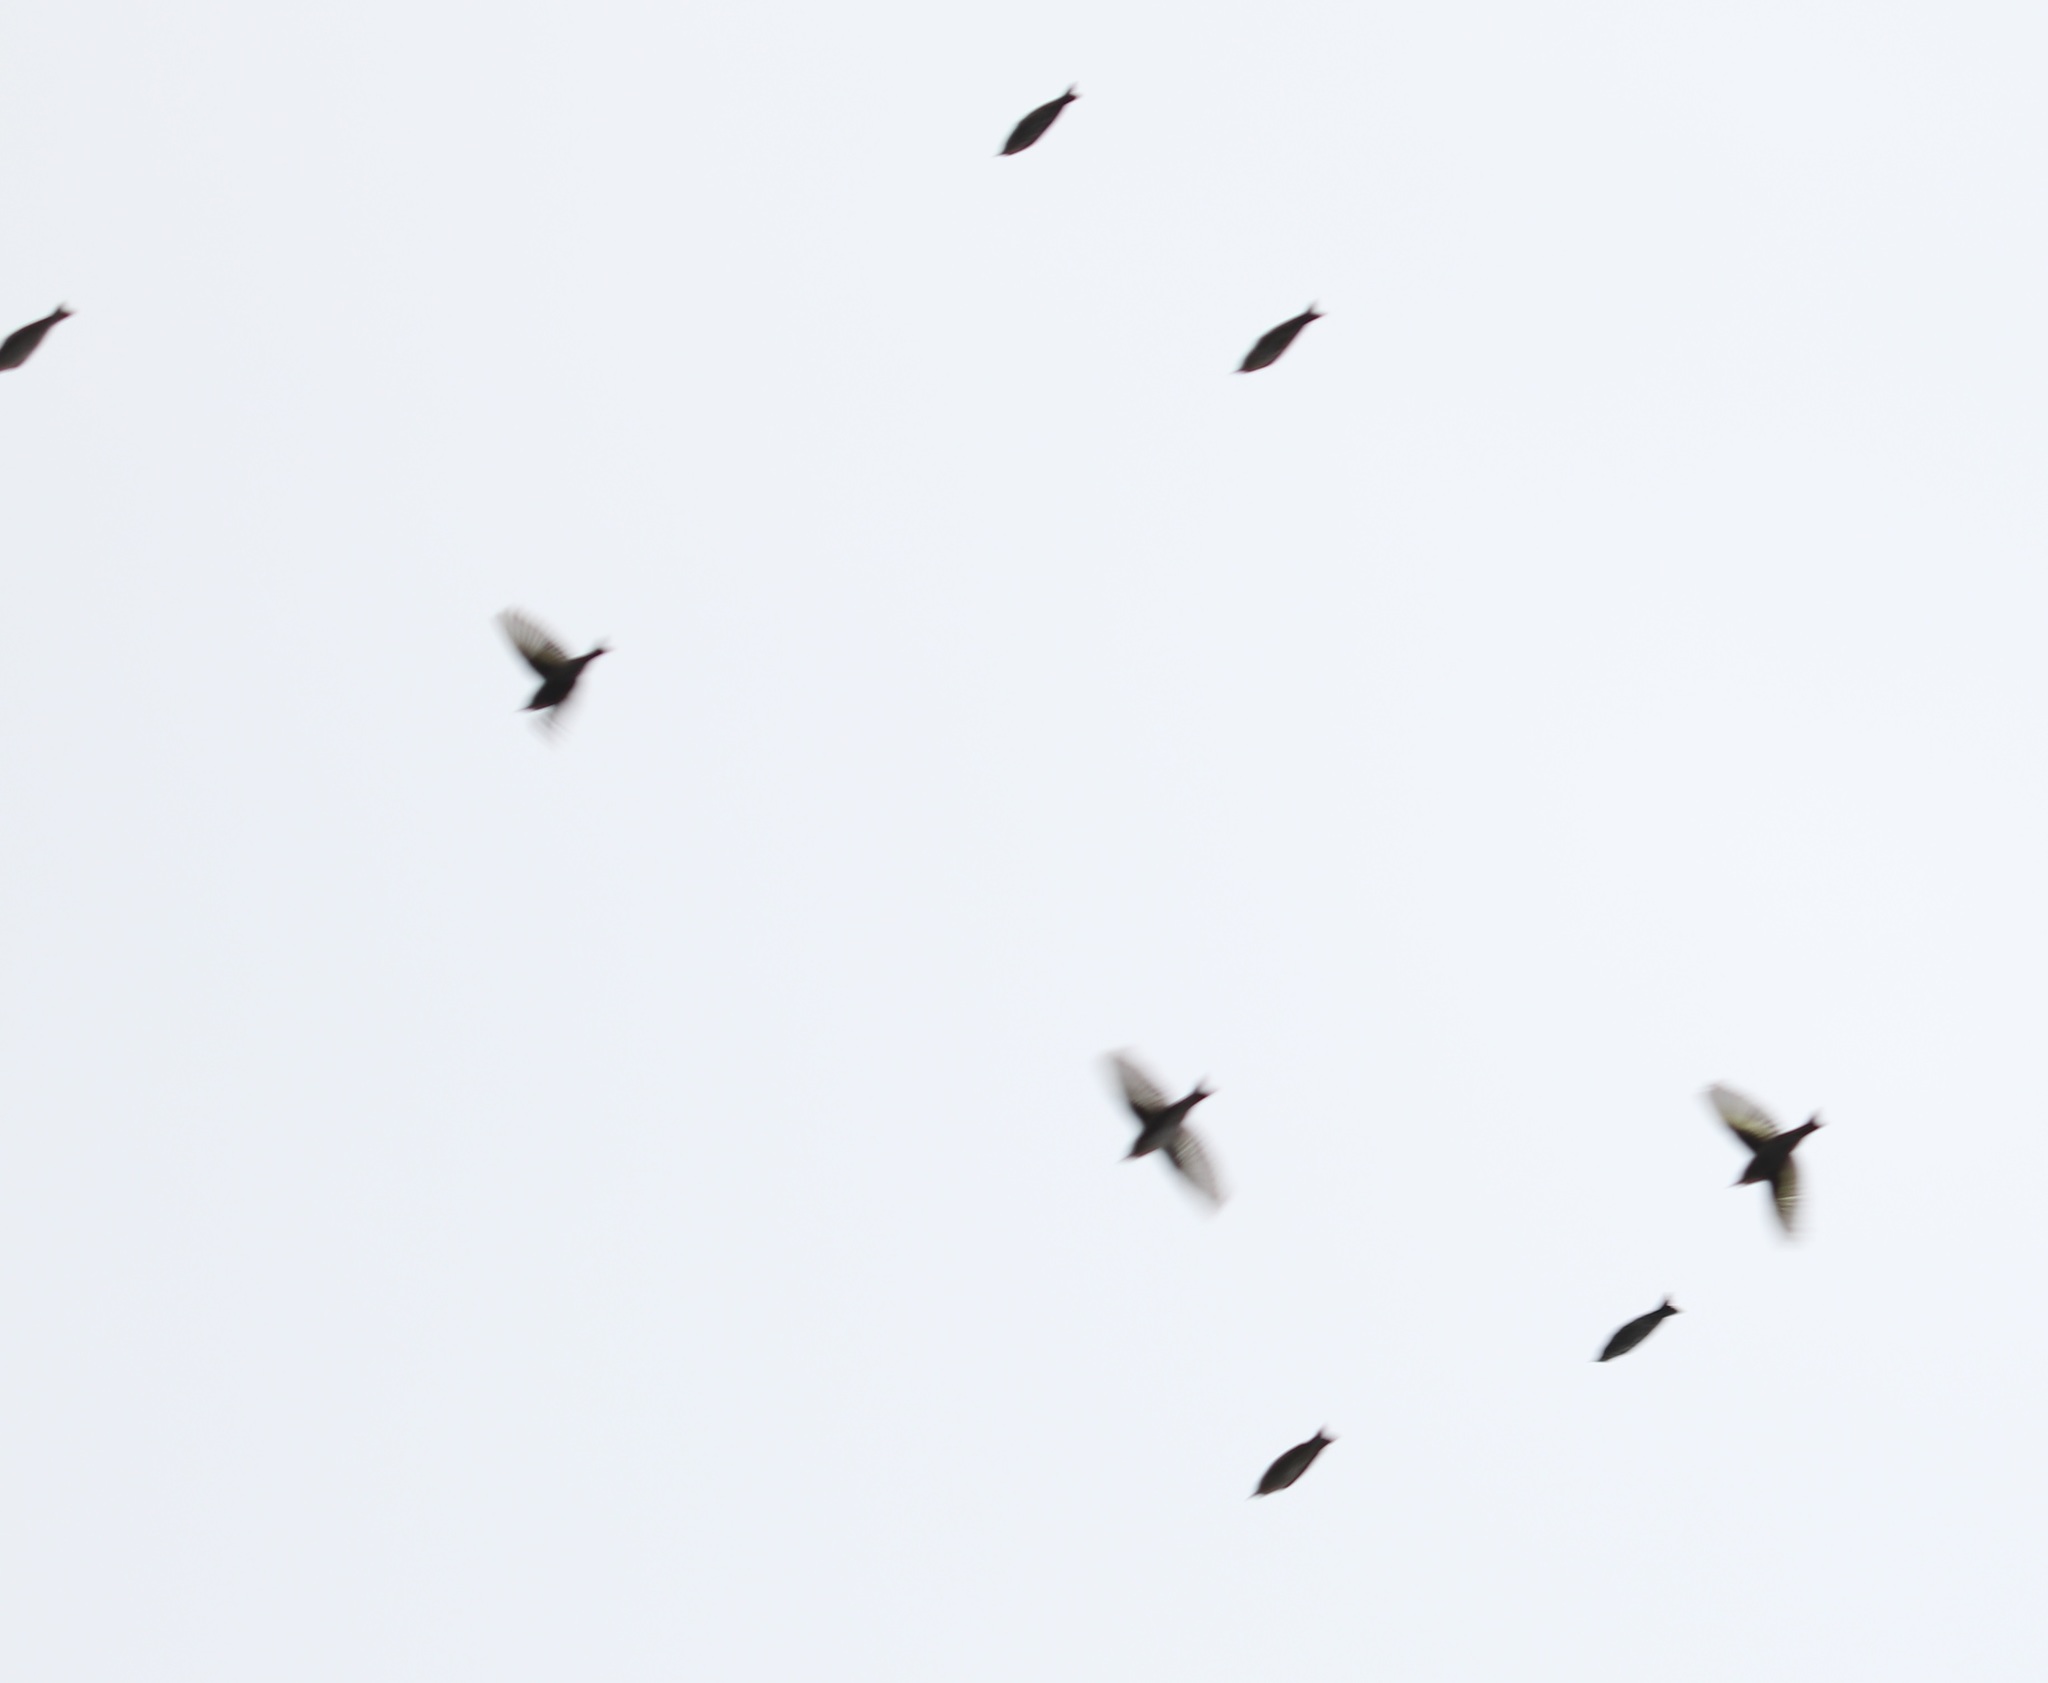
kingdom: Animalia
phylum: Chordata
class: Aves
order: Passeriformes
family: Fringillidae
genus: Spinus
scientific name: Spinus pinus
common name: Pine siskin
